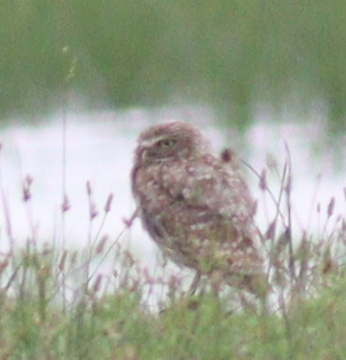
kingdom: Animalia
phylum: Chordata
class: Aves
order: Strigiformes
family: Strigidae
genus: Athene
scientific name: Athene cunicularia
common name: Burrowing owl
